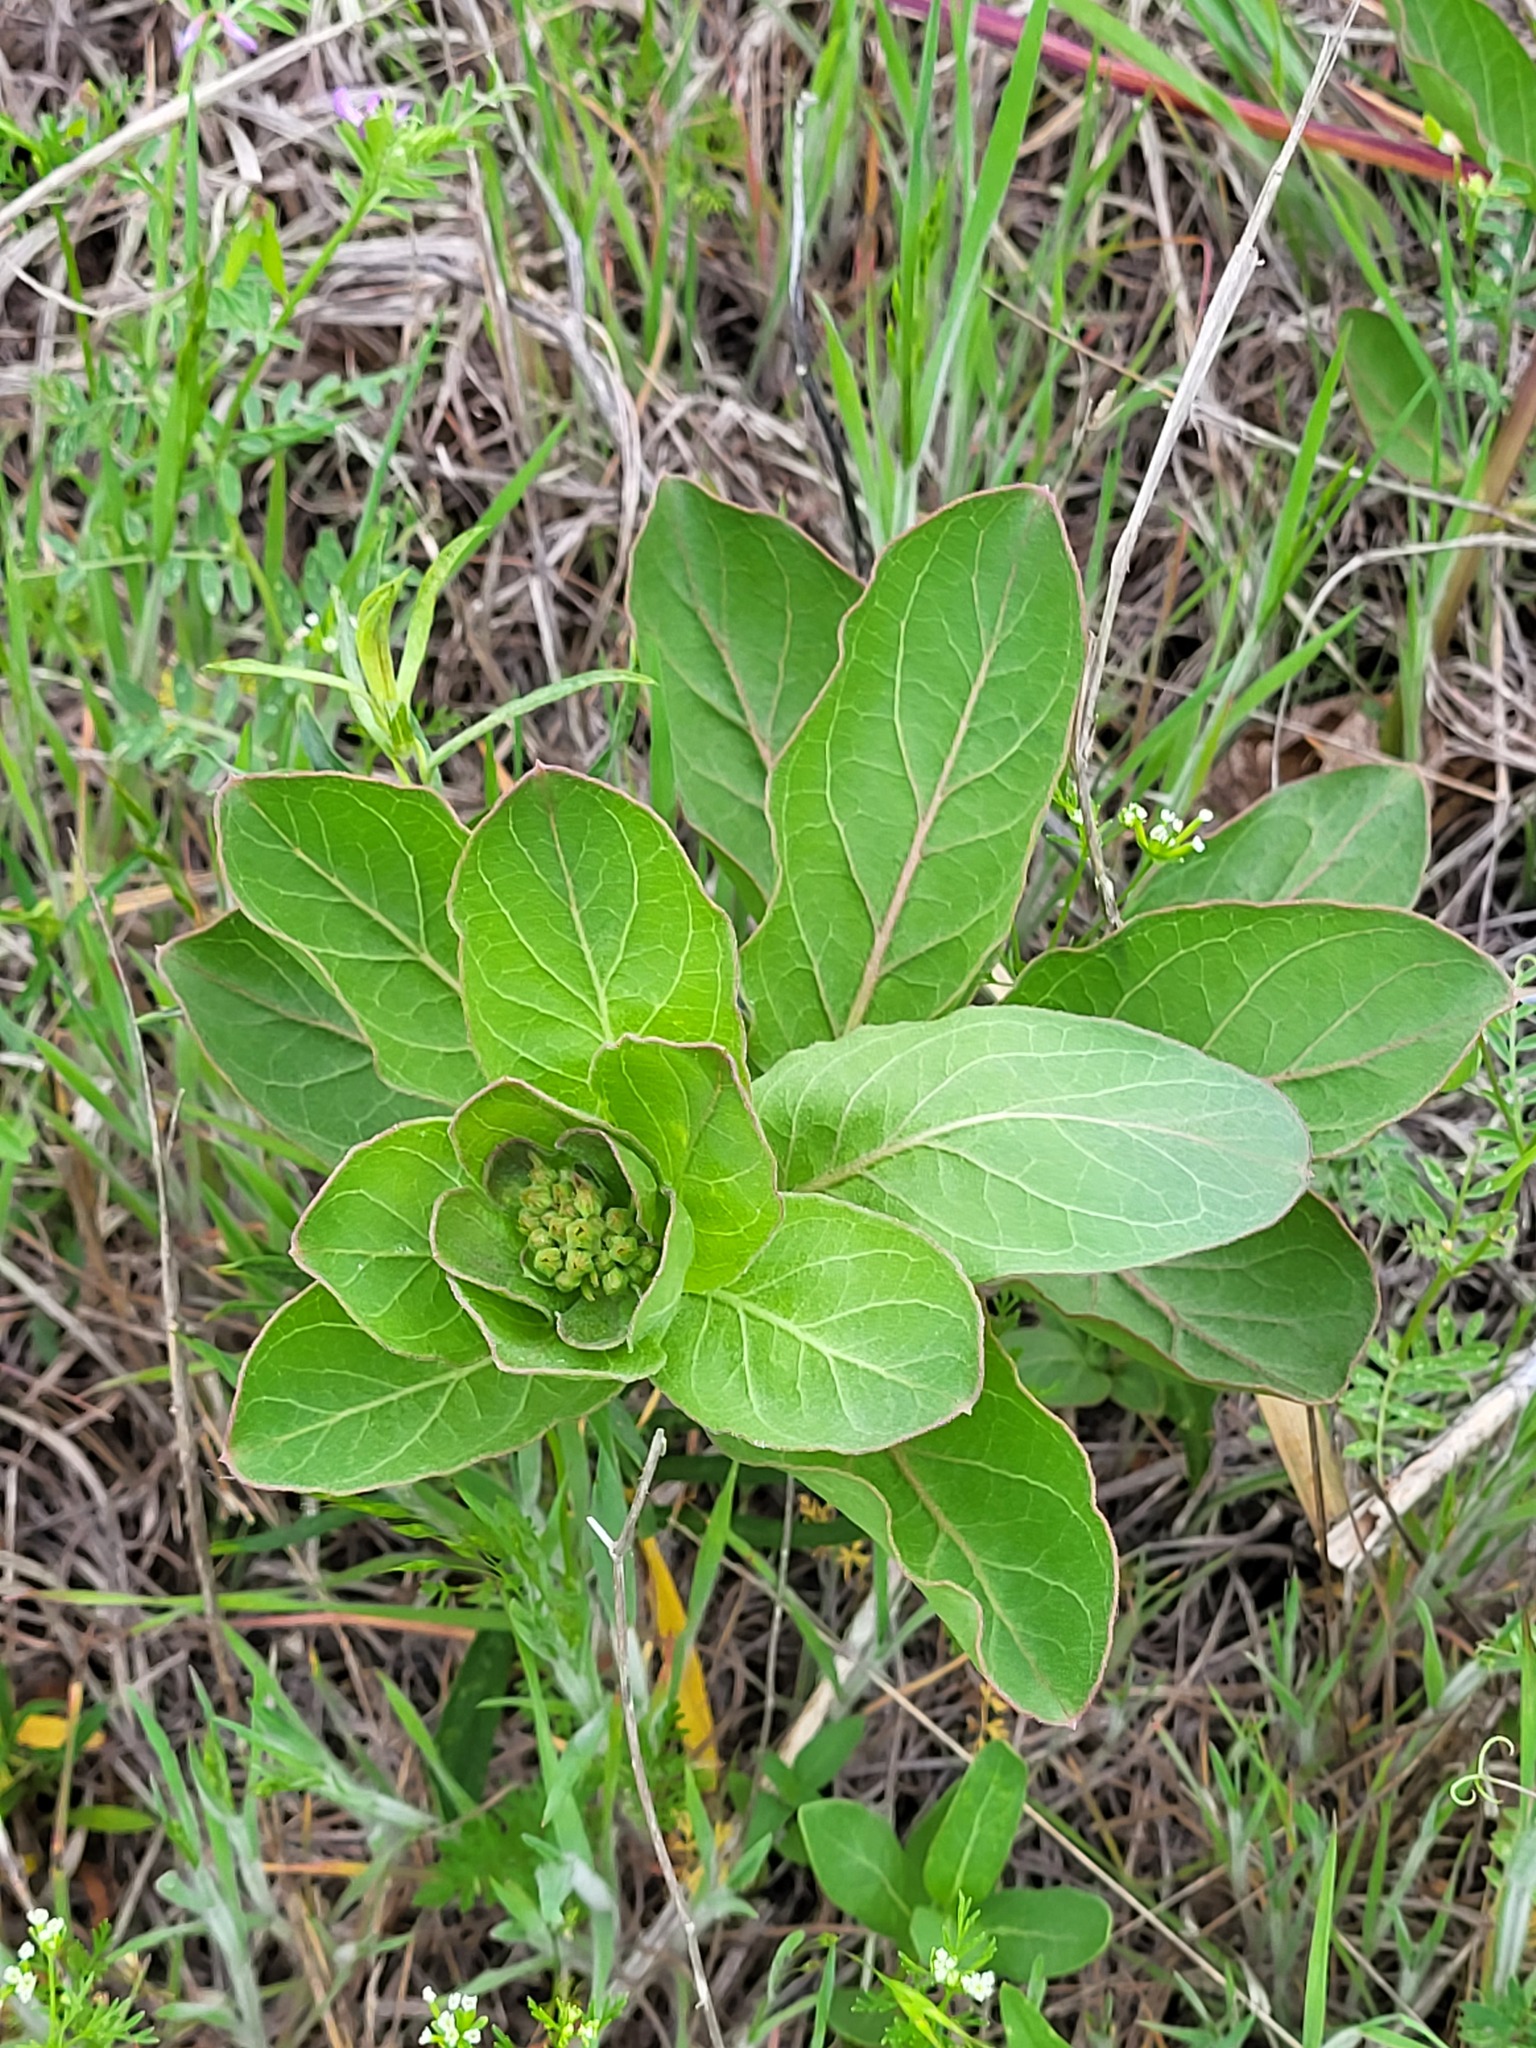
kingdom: Plantae
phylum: Tracheophyta
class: Magnoliopsida
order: Gentianales
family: Apocynaceae
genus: Asclepias
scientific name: Asclepias viridis
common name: Antelope-horns
